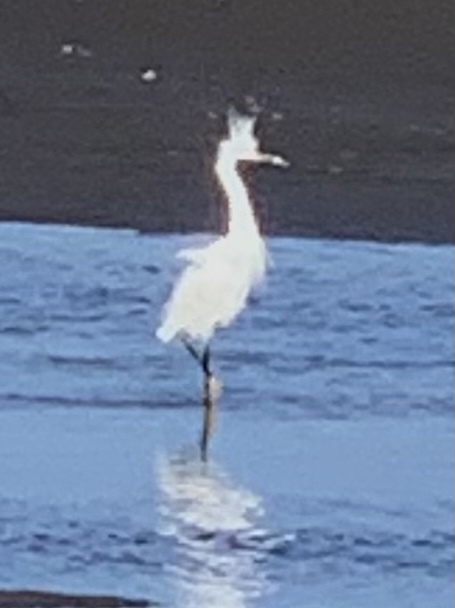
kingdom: Animalia
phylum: Chordata
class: Aves
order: Pelecaniformes
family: Ardeidae
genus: Egretta
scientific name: Egretta thula
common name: Snowy egret
